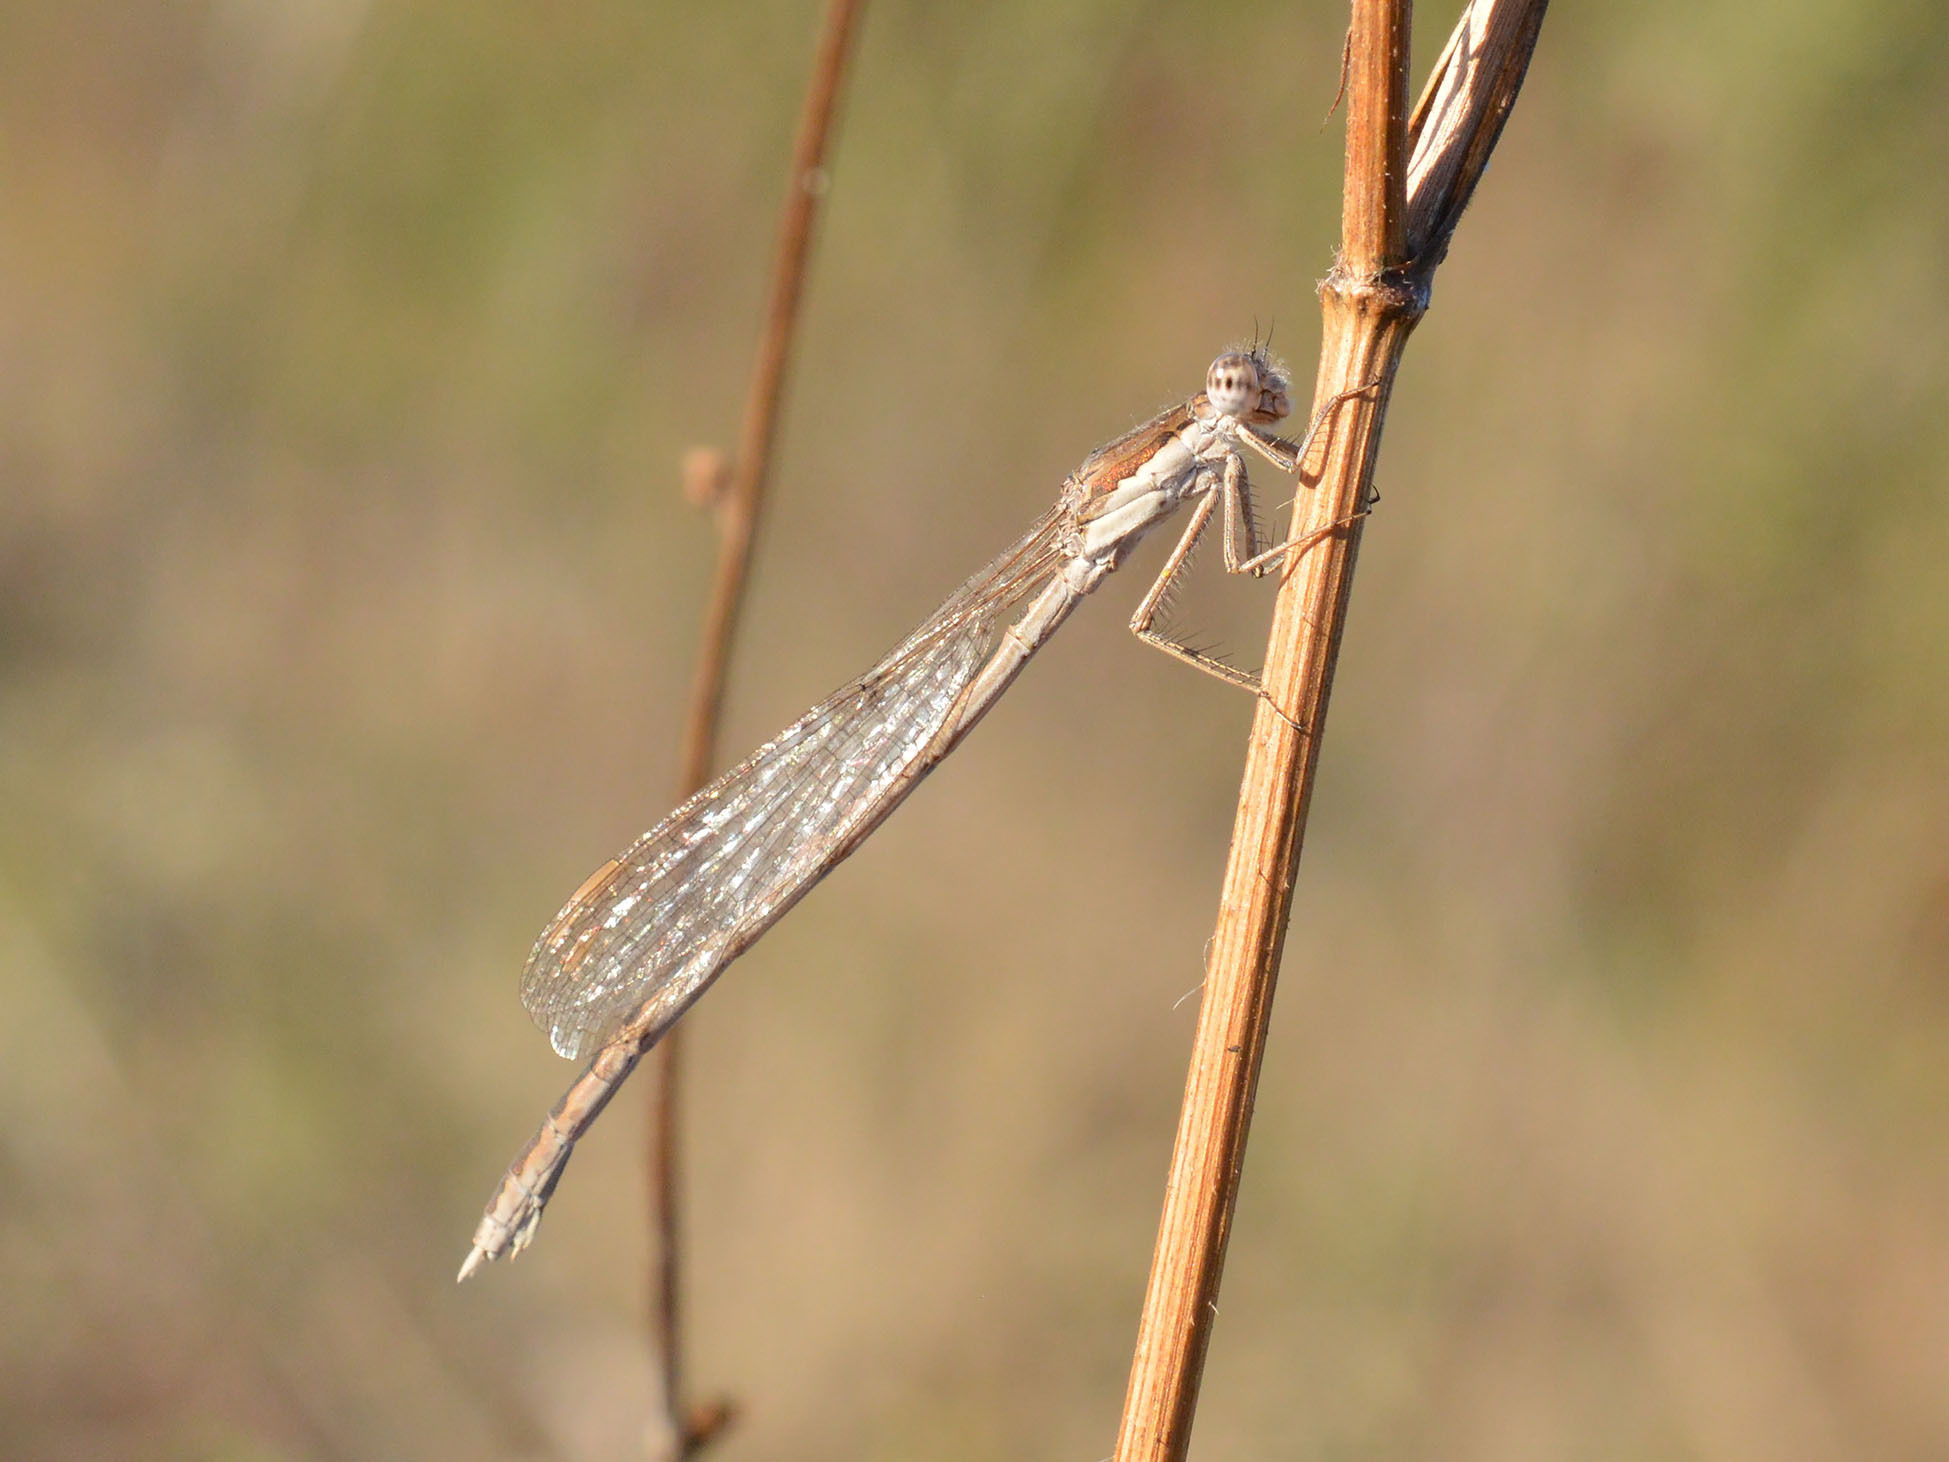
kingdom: Animalia
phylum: Arthropoda
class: Insecta
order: Odonata
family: Lestidae
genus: Sympecma
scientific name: Sympecma fusca
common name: Common winter damsel
